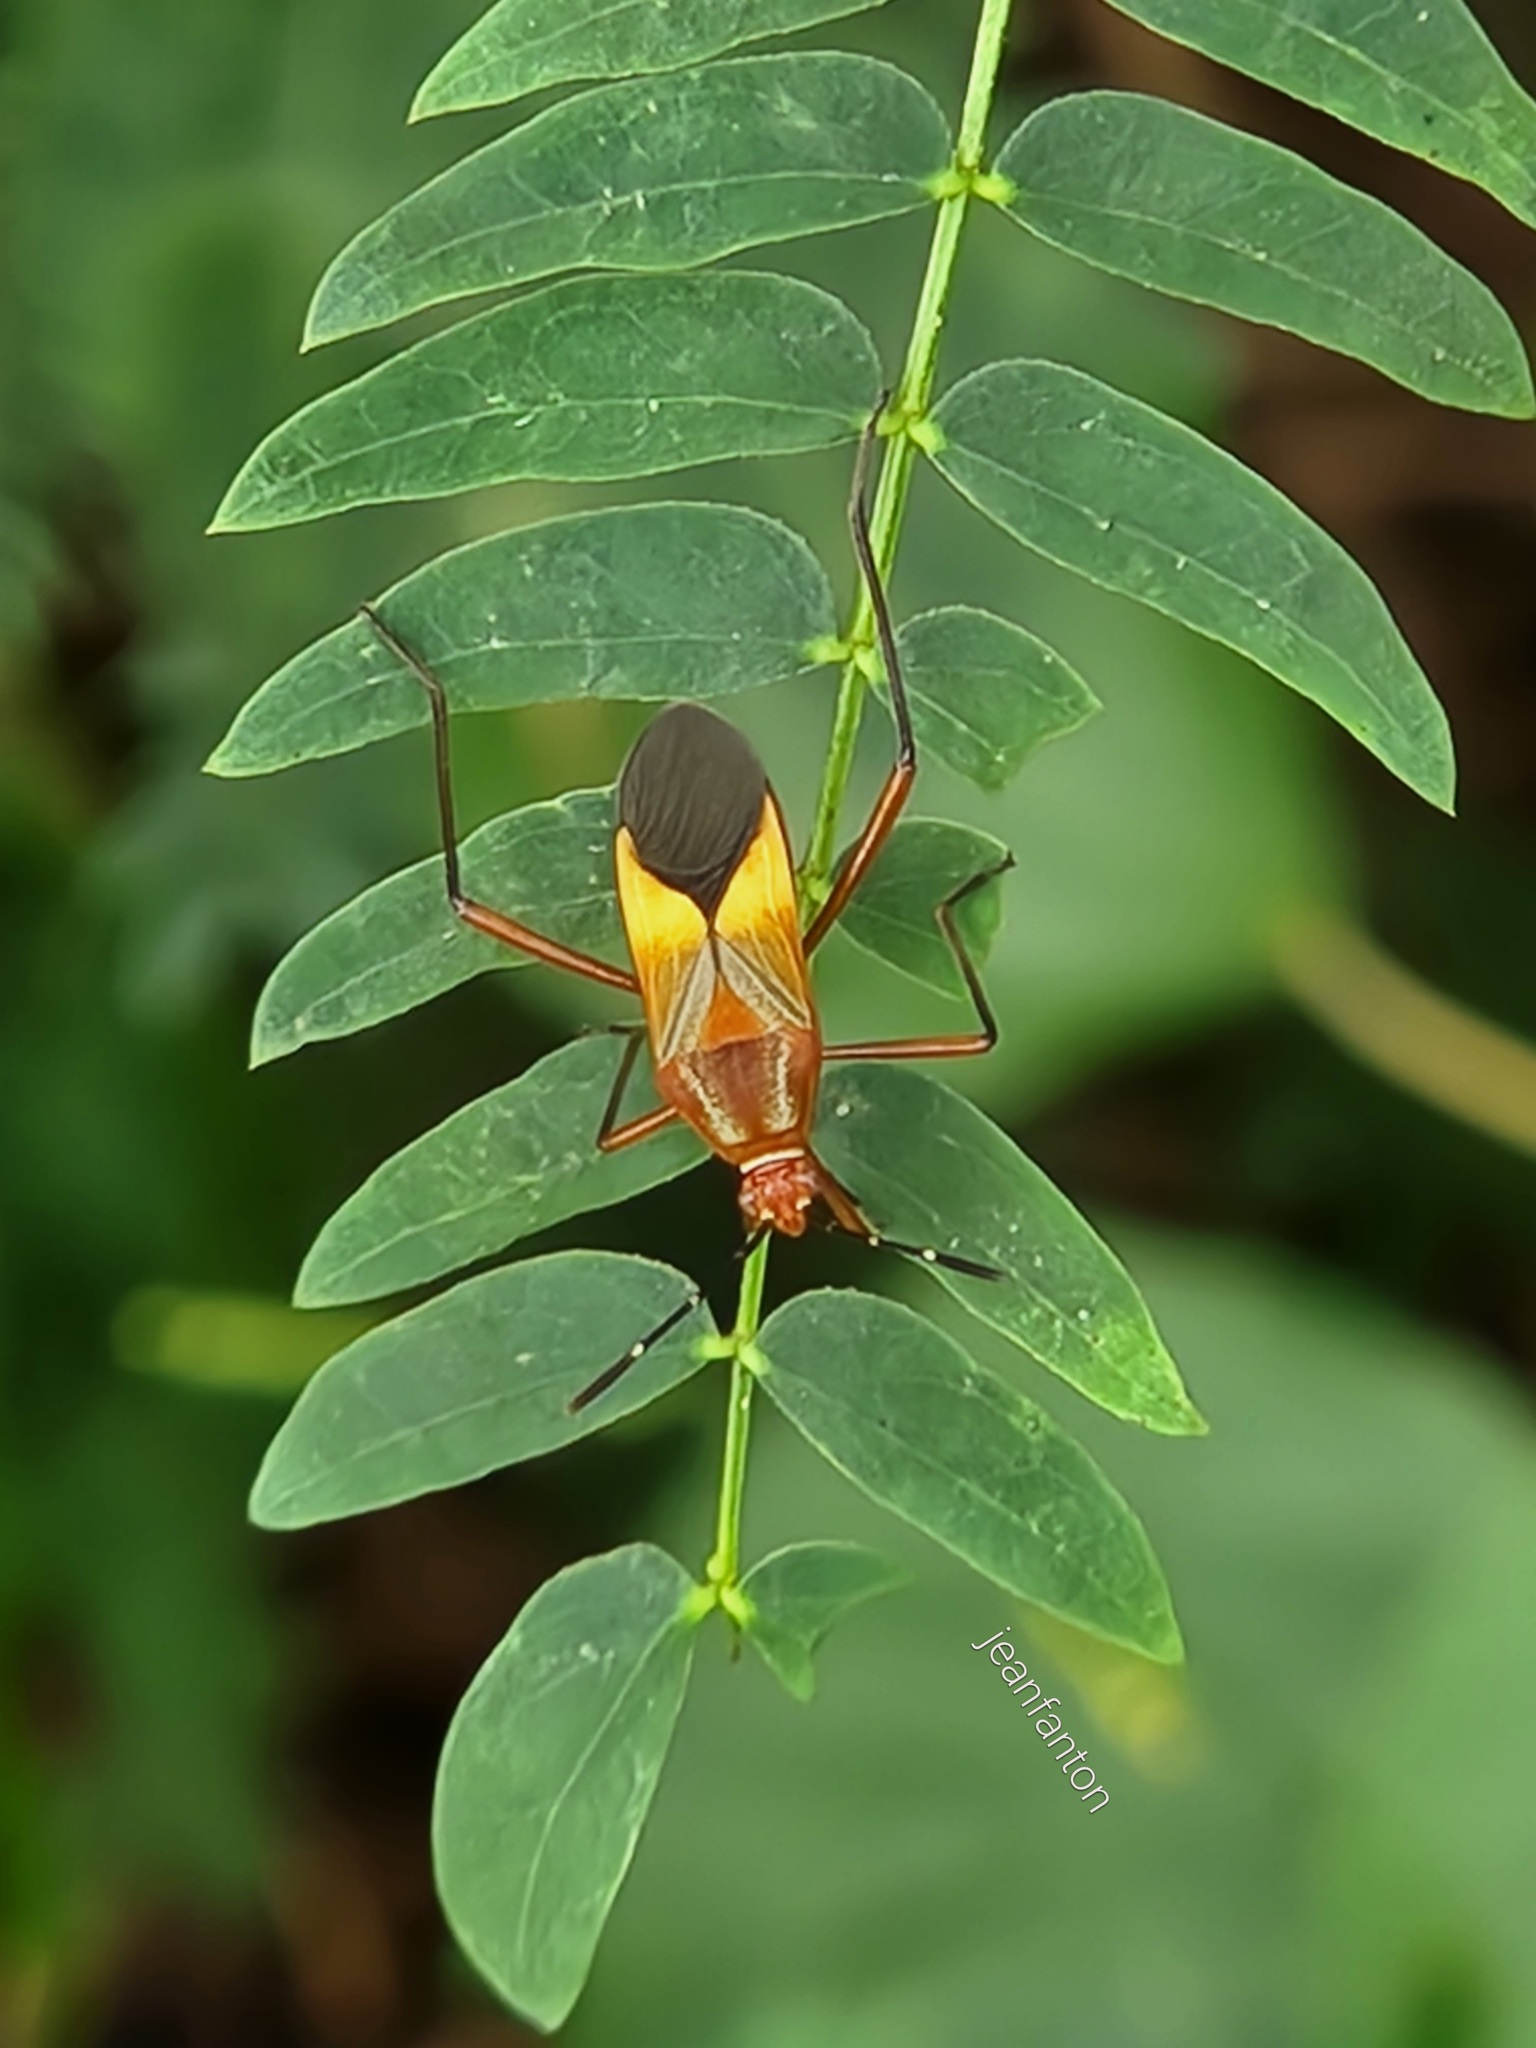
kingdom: Animalia
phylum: Arthropoda
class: Insecta
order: Hemiptera
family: Coreidae
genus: Hypselonotus
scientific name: Hypselonotus interruptus
